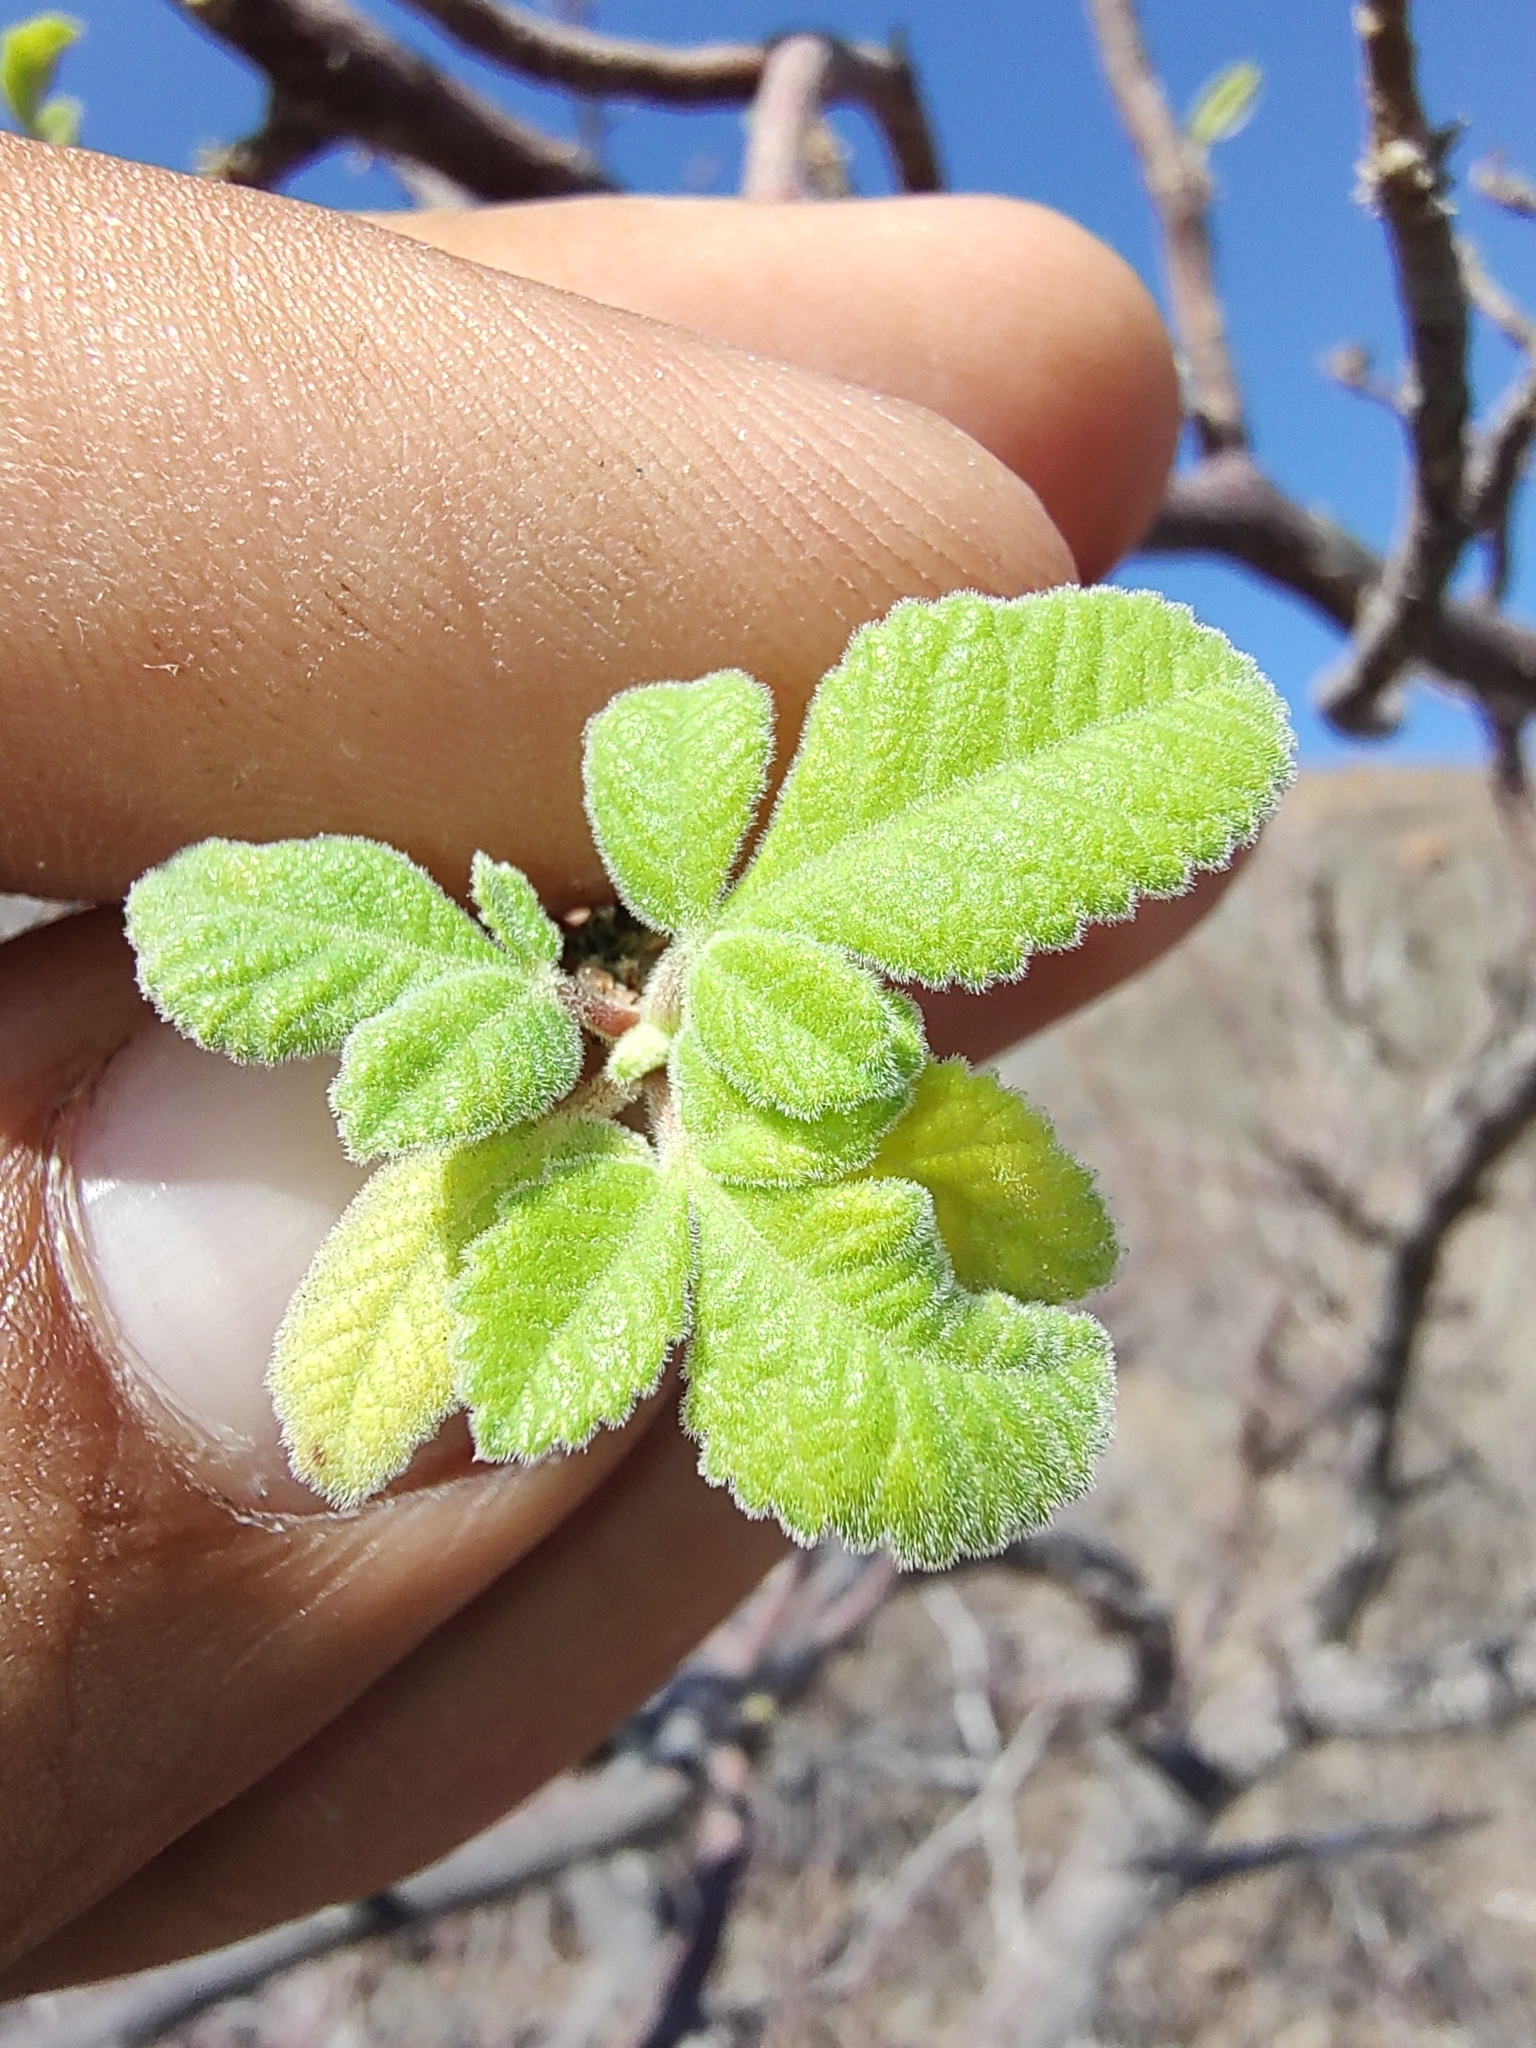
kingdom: Plantae
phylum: Tracheophyta
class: Magnoliopsida
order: Sapindales
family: Burseraceae
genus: Bursera
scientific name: Bursera hindsiana
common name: Red elephant tree
